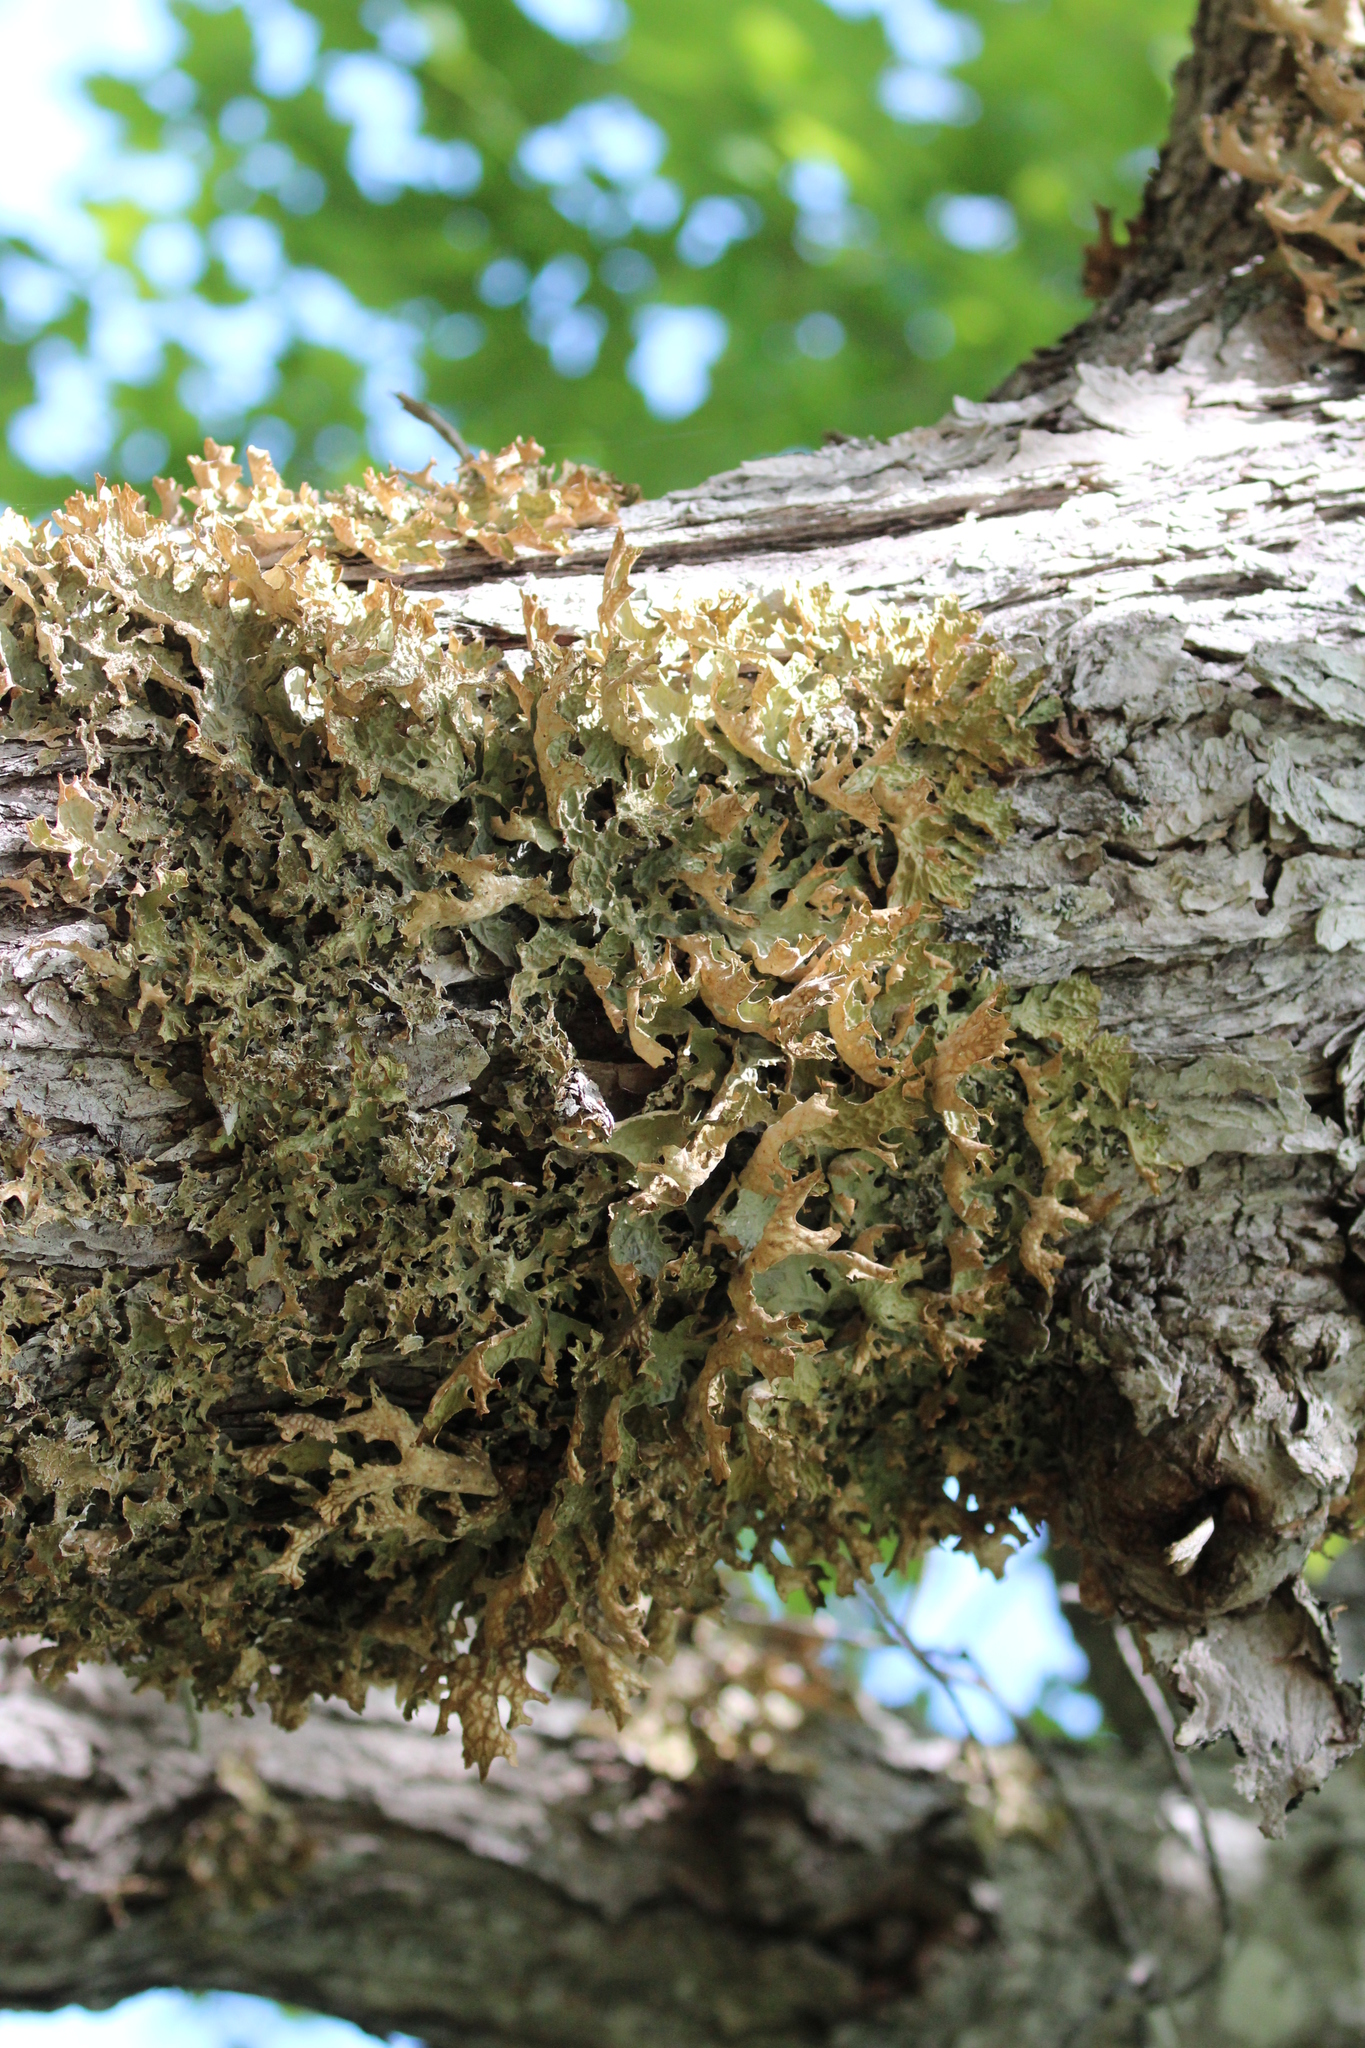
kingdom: Fungi
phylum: Ascomycota
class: Lecanoromycetes
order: Peltigerales
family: Lobariaceae
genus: Lobaria
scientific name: Lobaria pulmonaria
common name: Lungwort
